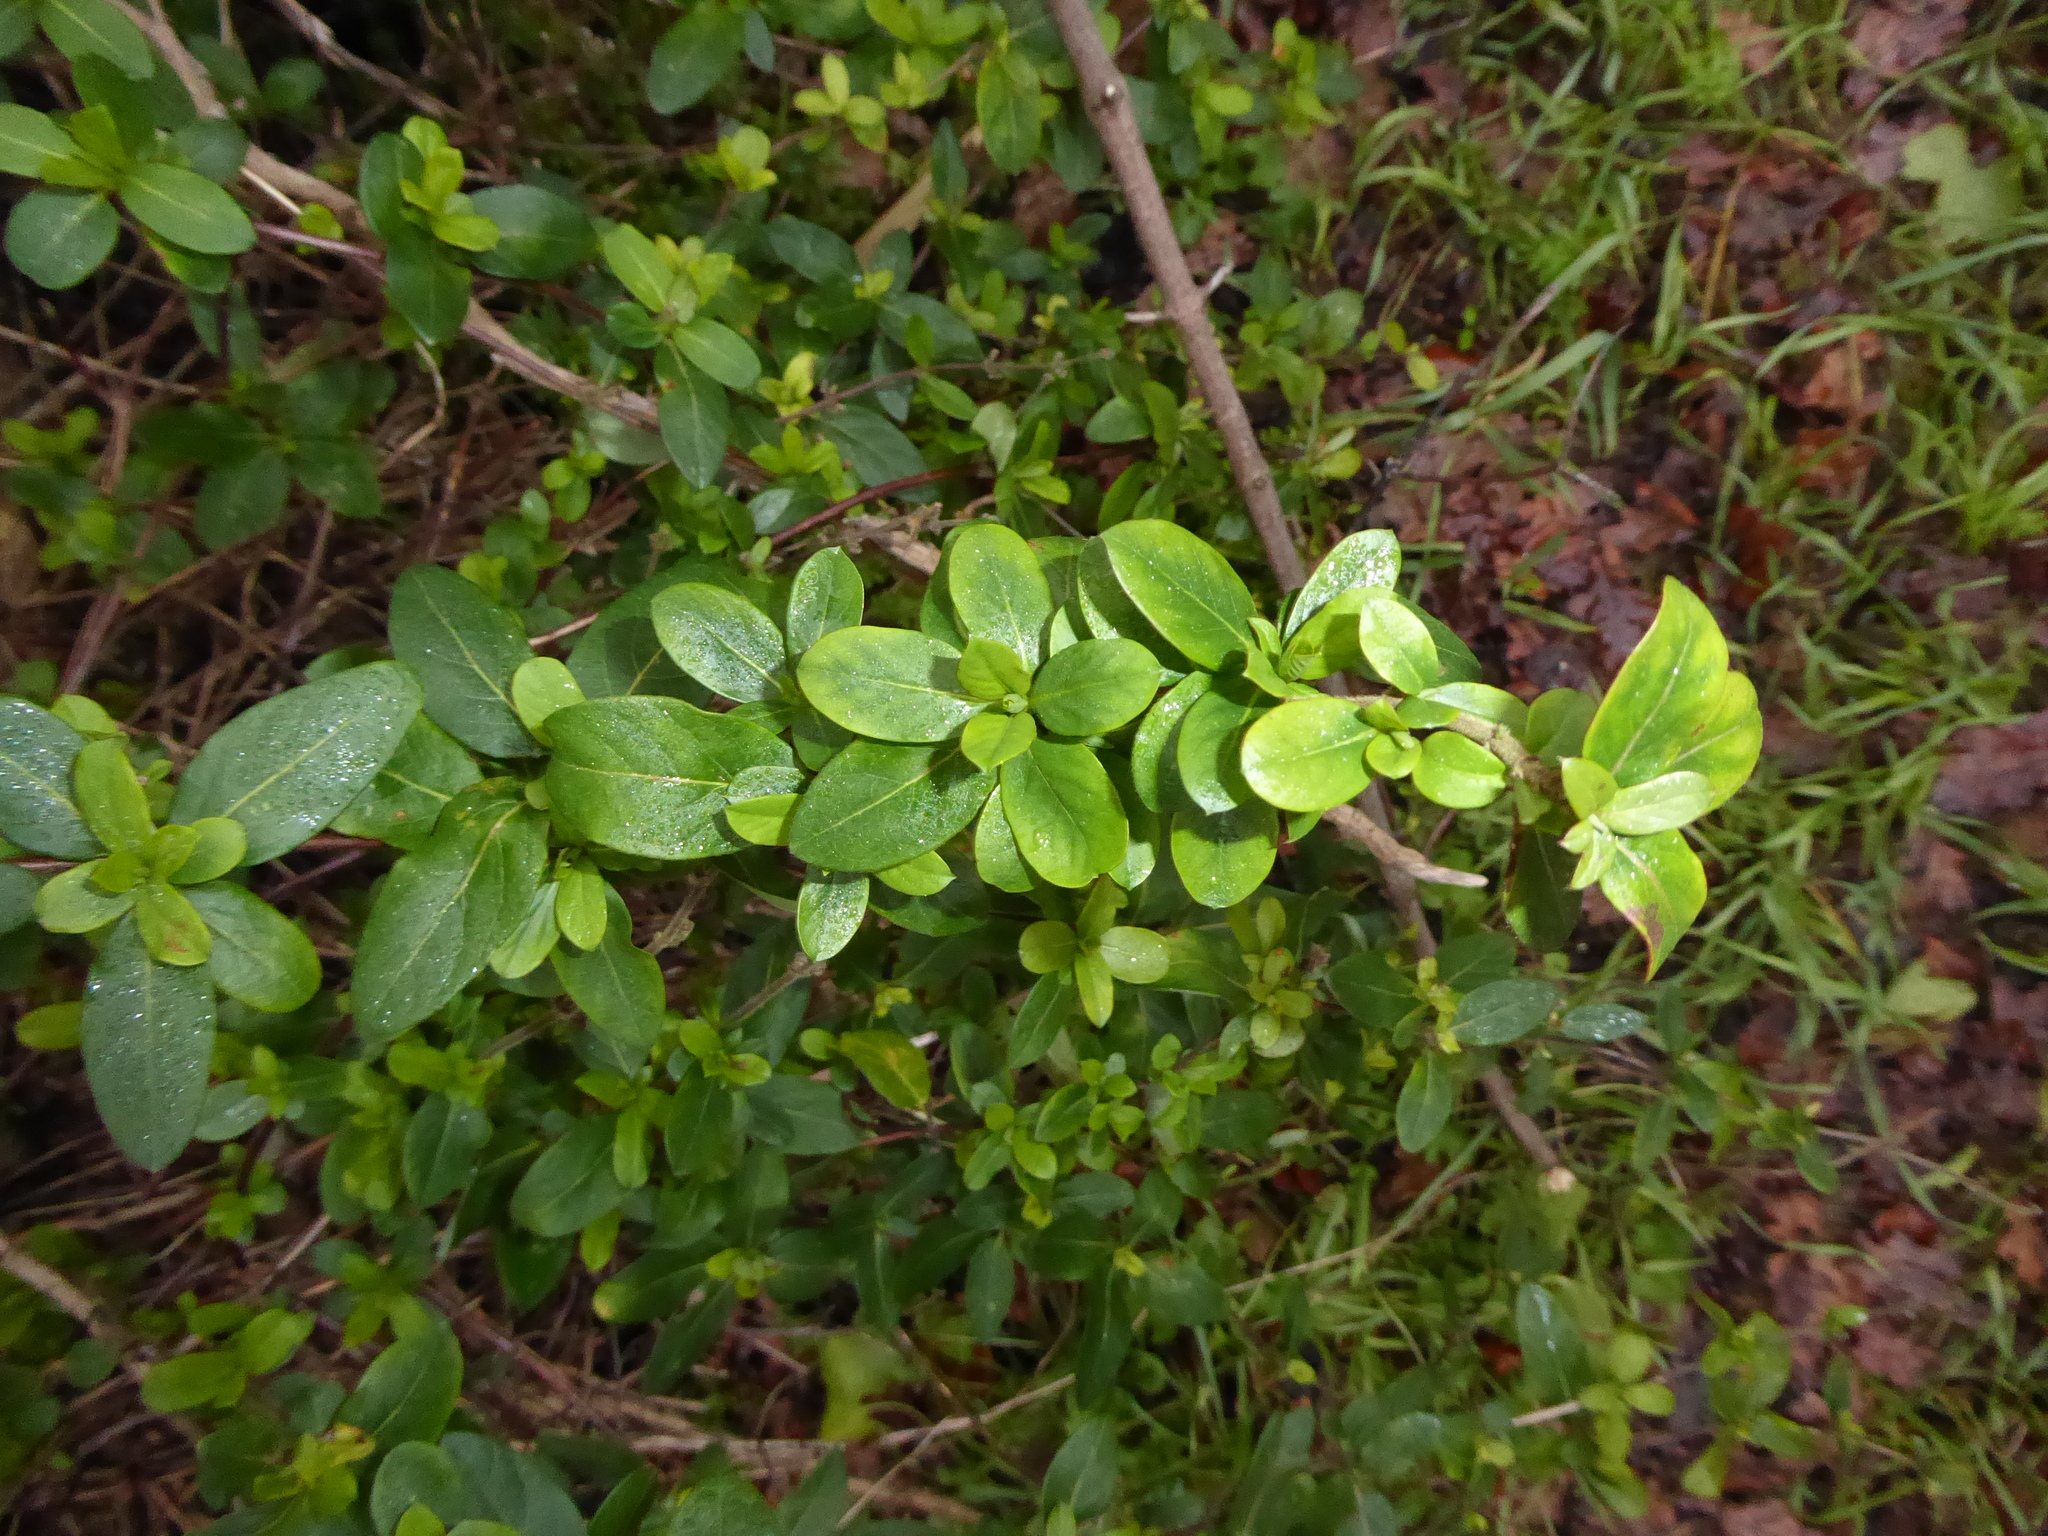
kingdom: Plantae
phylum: Tracheophyta
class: Magnoliopsida
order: Dipsacales
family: Caprifoliaceae
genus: Lonicera
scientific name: Lonicera japonica
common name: Japanese honeysuckle
